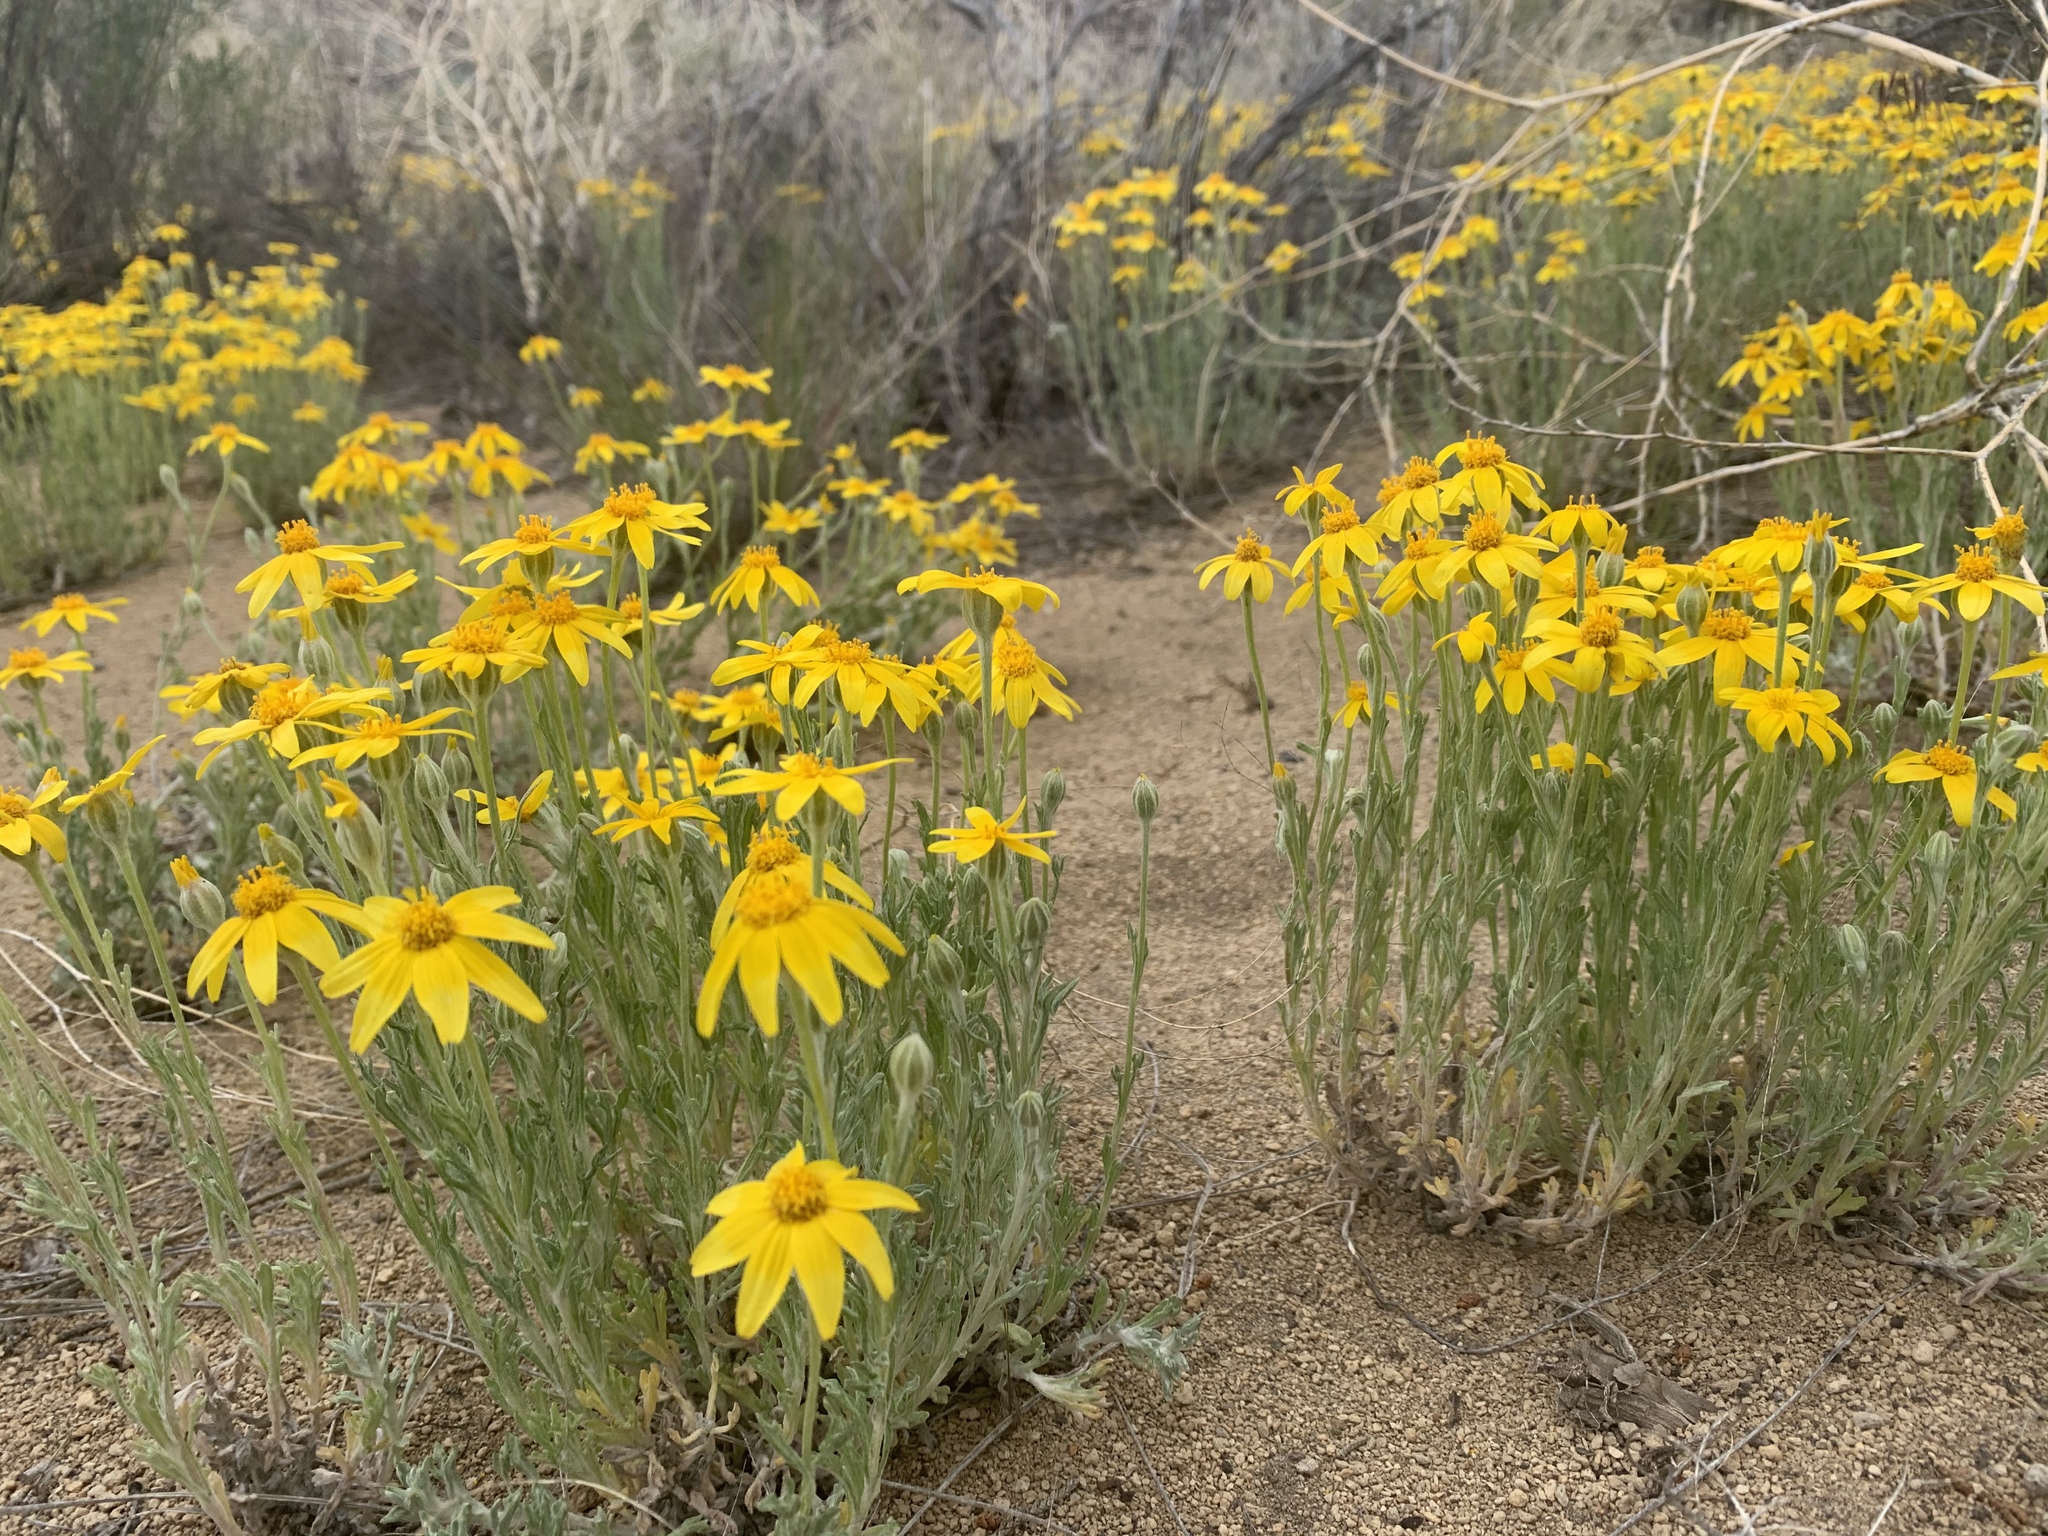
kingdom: Plantae
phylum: Tracheophyta
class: Magnoliopsida
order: Asterales
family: Asteraceae
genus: Eriophyllum
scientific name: Eriophyllum lanatum
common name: Common woolly-sunflower
